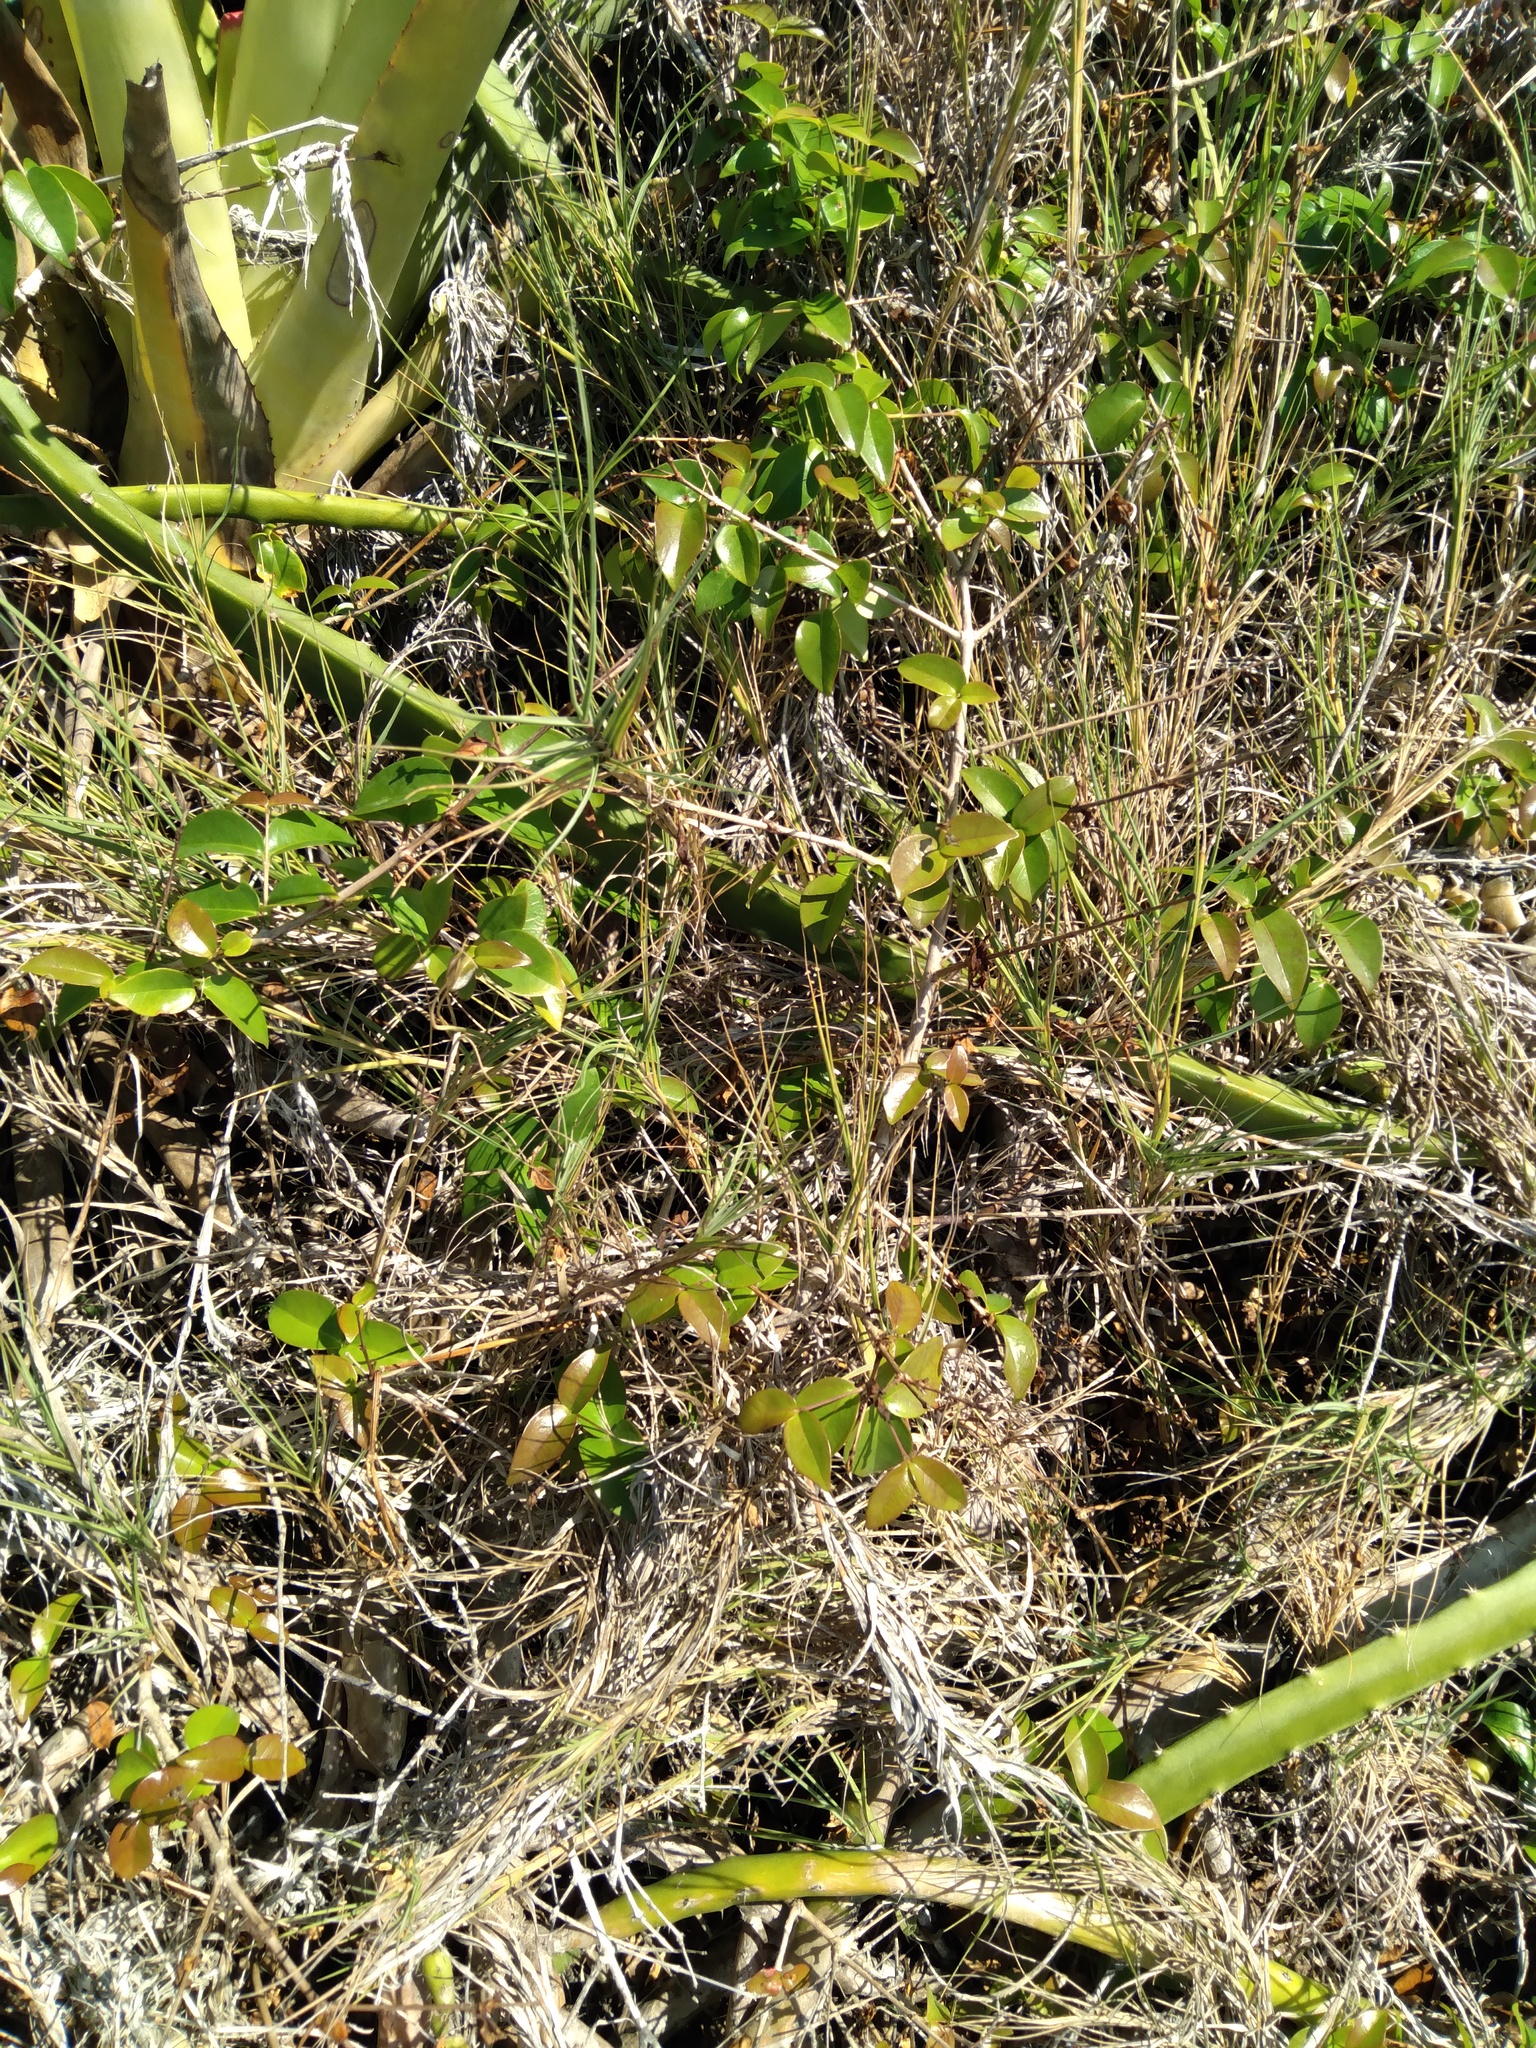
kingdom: Plantae
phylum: Tracheophyta
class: Magnoliopsida
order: Myrtales
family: Myrtaceae
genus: Eugenia
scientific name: Eugenia uniflora
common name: Surinam cherry
